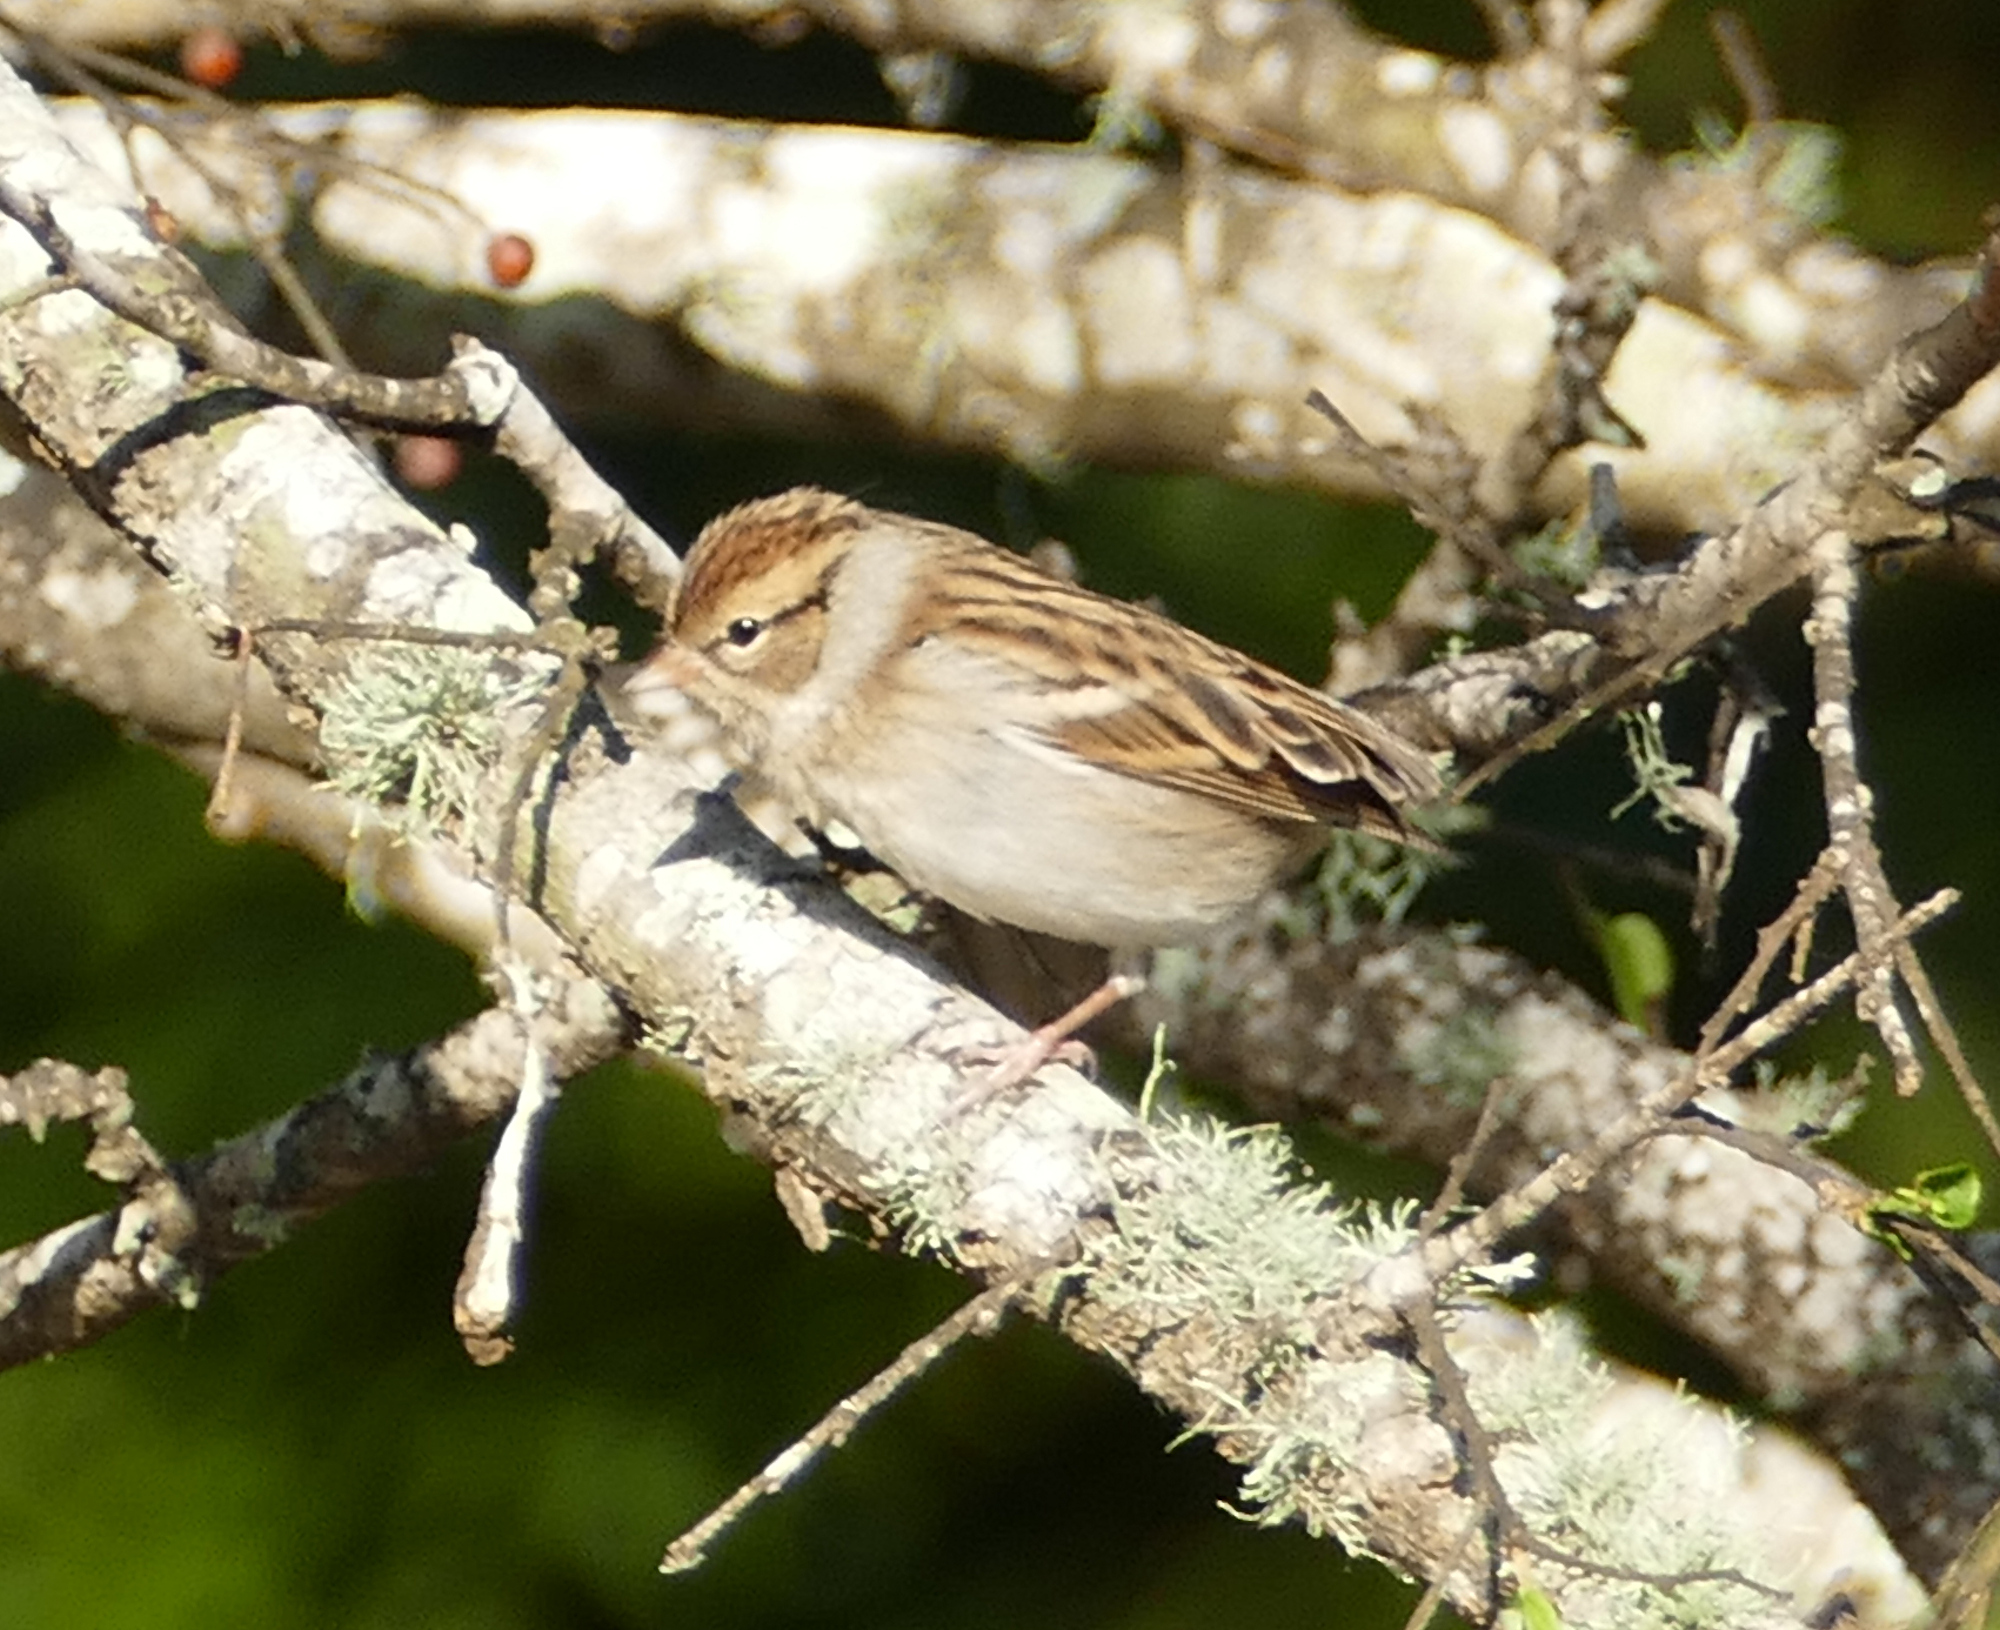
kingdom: Animalia
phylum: Chordata
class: Aves
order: Passeriformes
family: Passerellidae
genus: Spizella
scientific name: Spizella passerina
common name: Chipping sparrow
